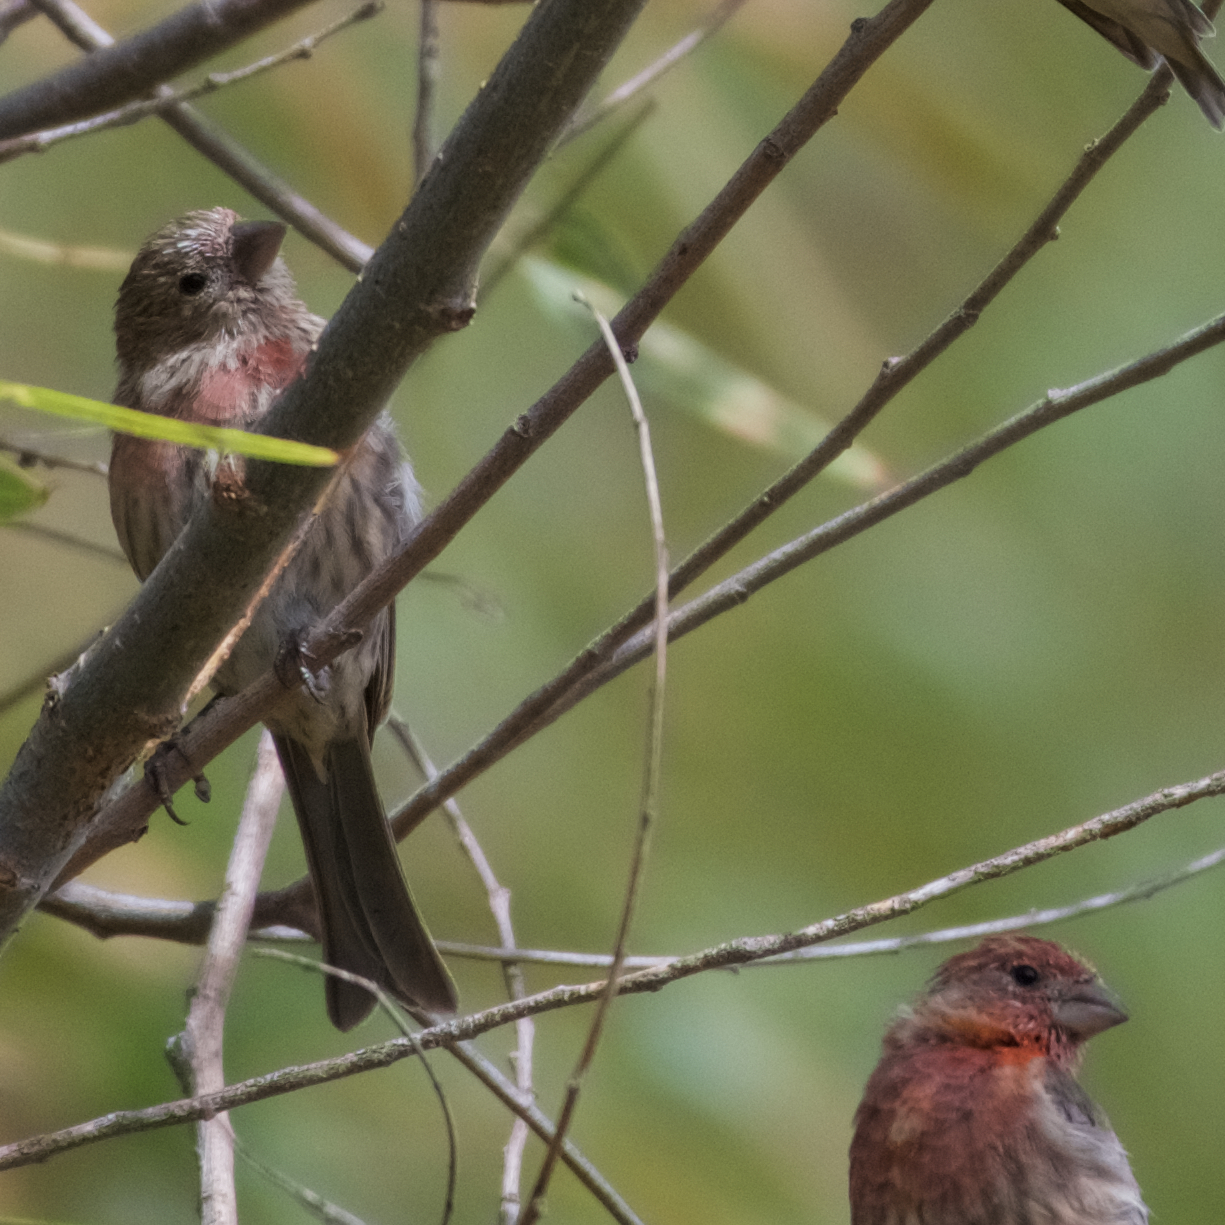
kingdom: Animalia
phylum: Chordata
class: Aves
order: Passeriformes
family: Fringillidae
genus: Haemorhous
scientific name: Haemorhous mexicanus
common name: House finch
